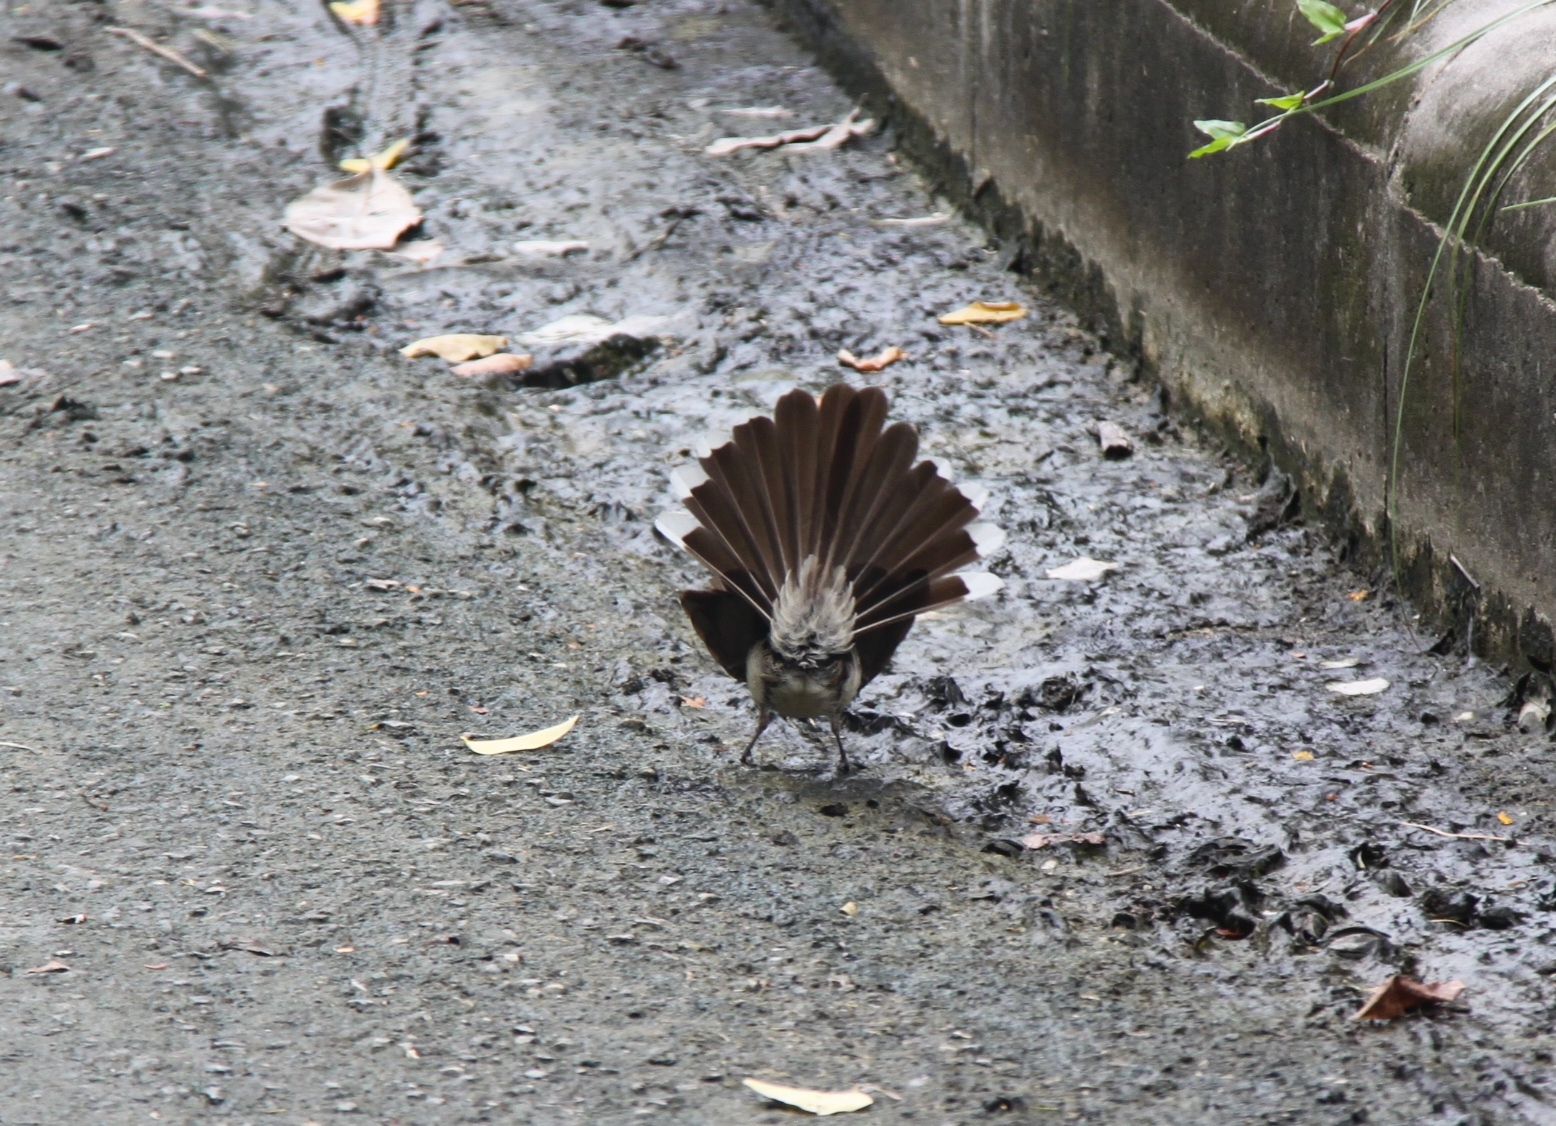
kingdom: Animalia
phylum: Chordata
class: Aves
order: Passeriformes
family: Rhipiduridae
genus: Rhipidura
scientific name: Rhipidura javanica
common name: Pied fantail
